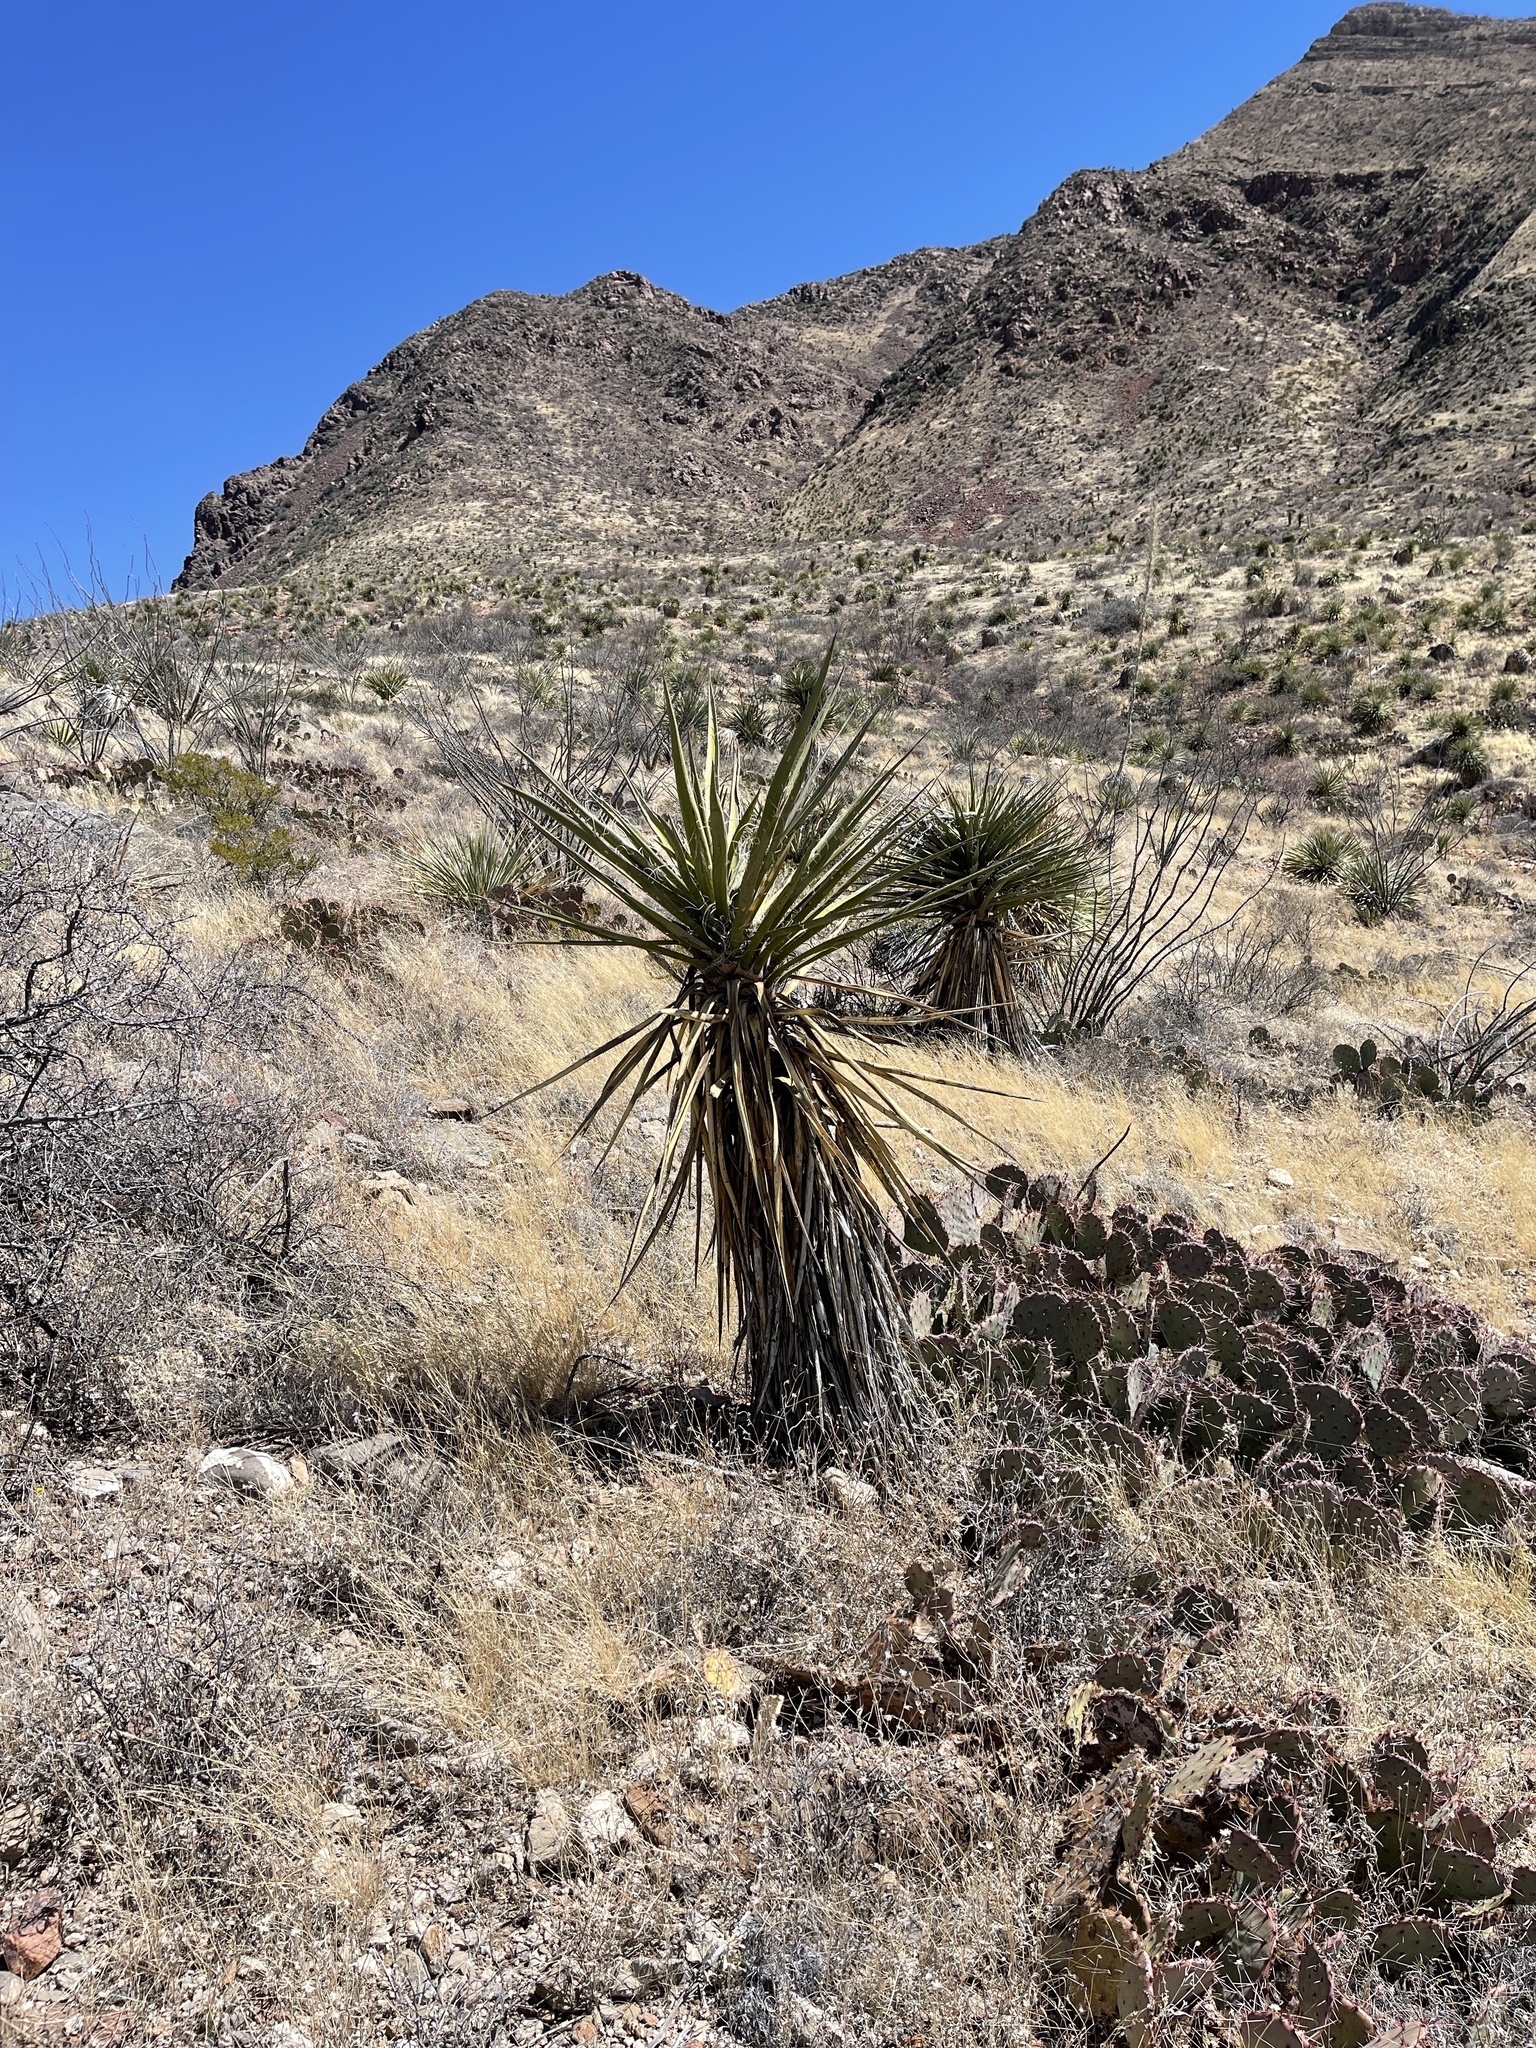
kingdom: Plantae
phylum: Tracheophyta
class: Liliopsida
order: Asparagales
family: Asparagaceae
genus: Yucca
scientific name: Yucca treculiana
